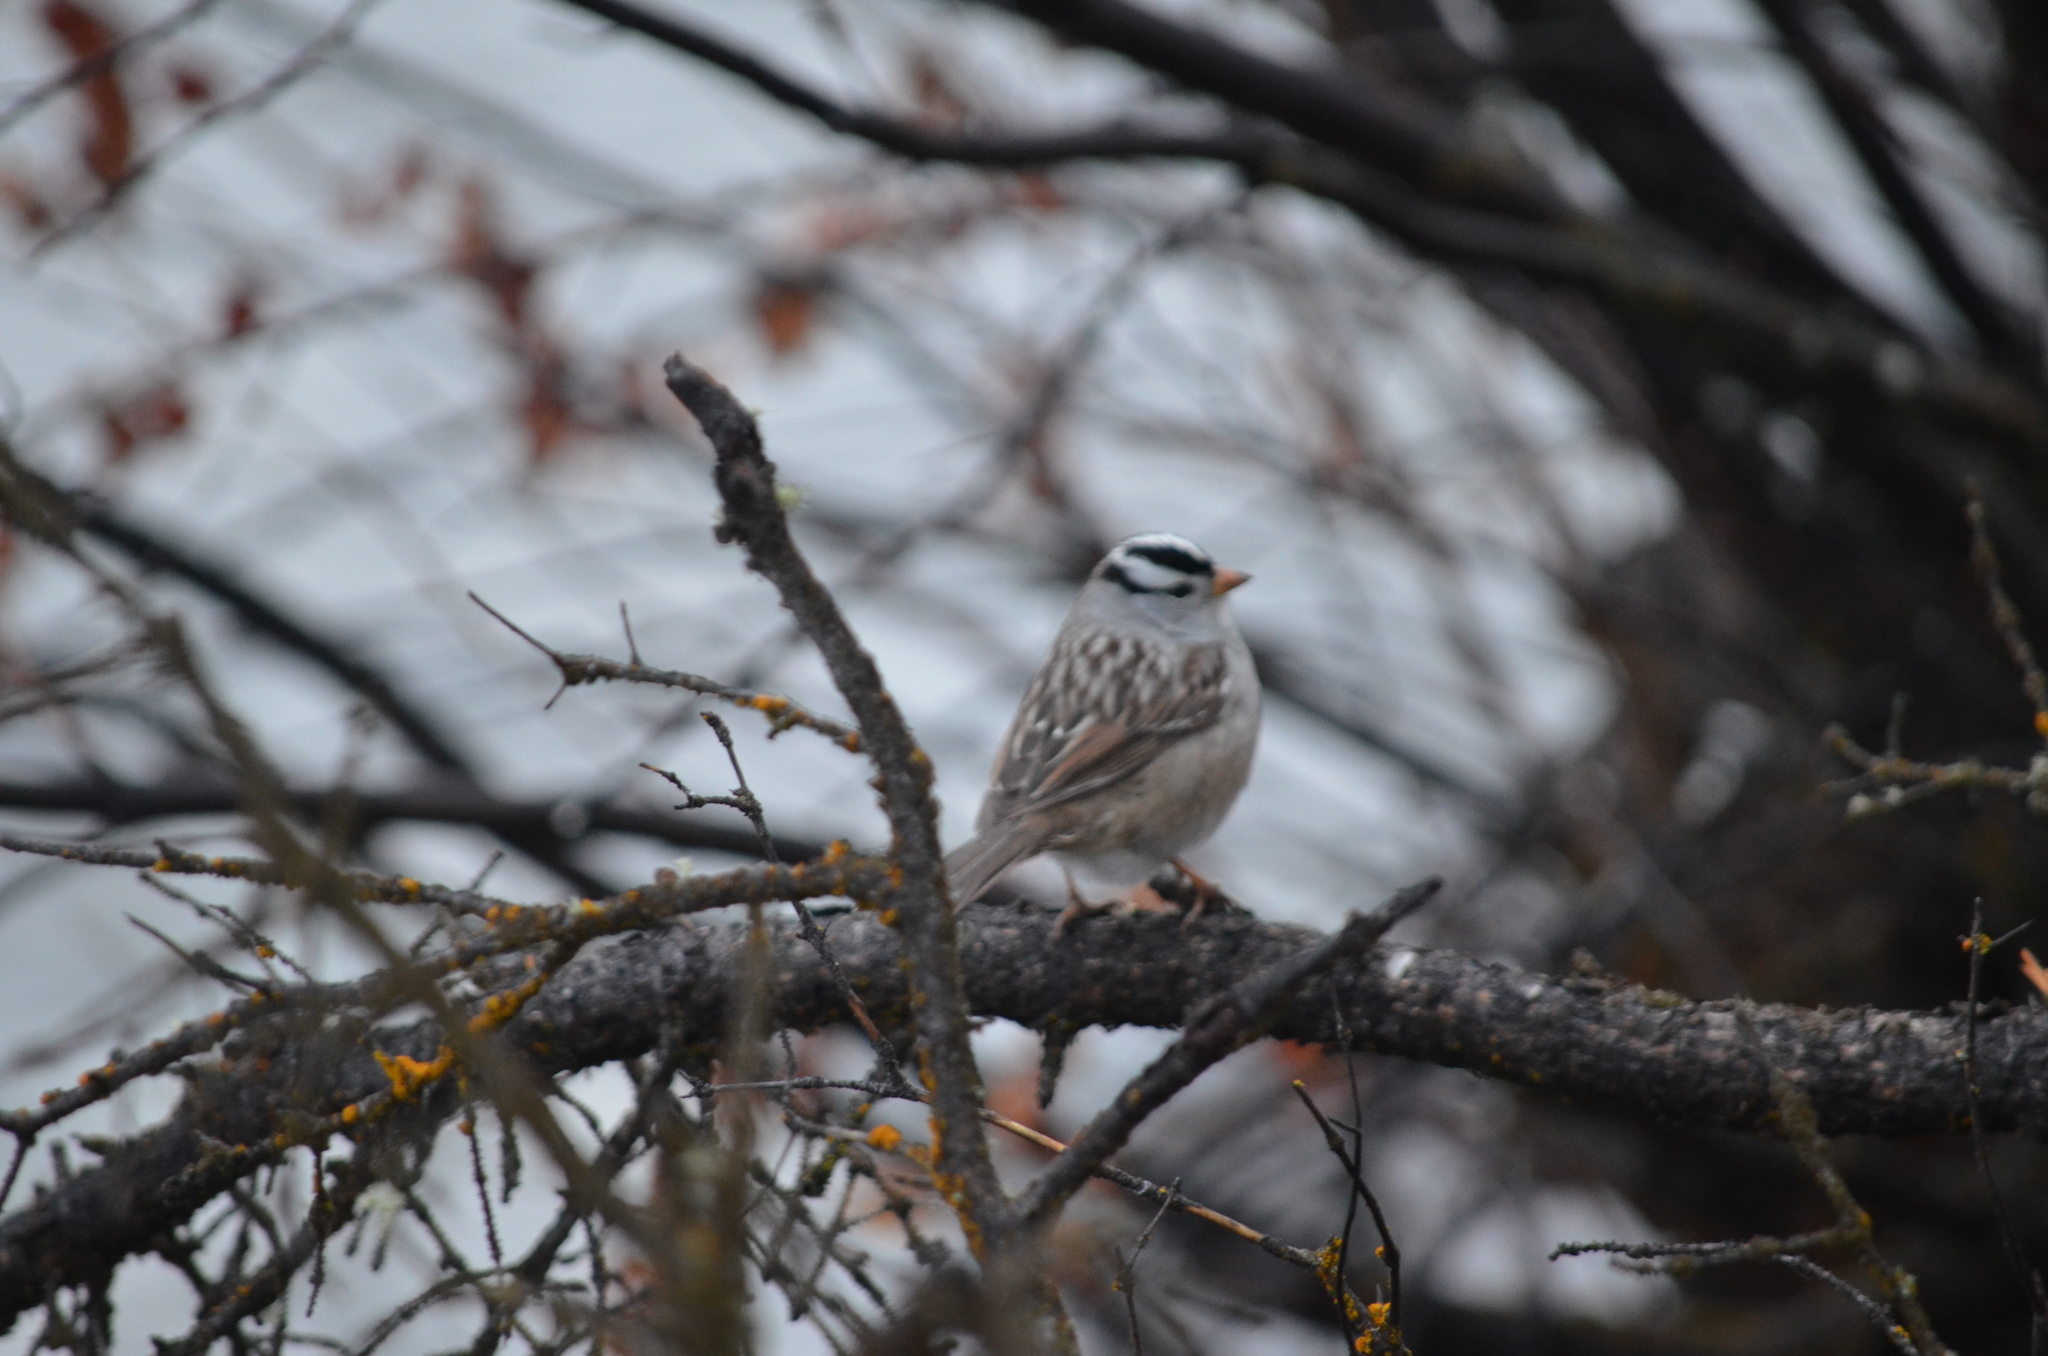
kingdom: Animalia
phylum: Chordata
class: Aves
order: Passeriformes
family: Passerellidae
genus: Zonotrichia
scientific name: Zonotrichia leucophrys
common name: White-crowned sparrow
